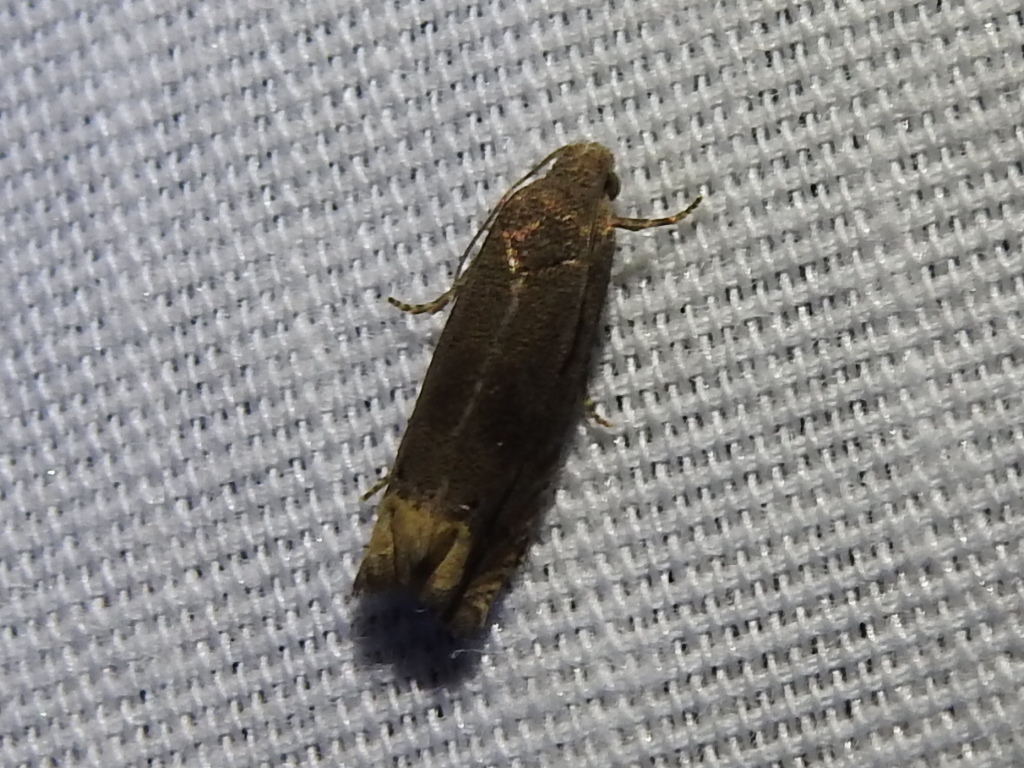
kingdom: Animalia
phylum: Arthropoda
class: Insecta
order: Lepidoptera
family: Tortricidae
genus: Epiblema
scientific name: Epiblema strenuana
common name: Ragweed borer moth
